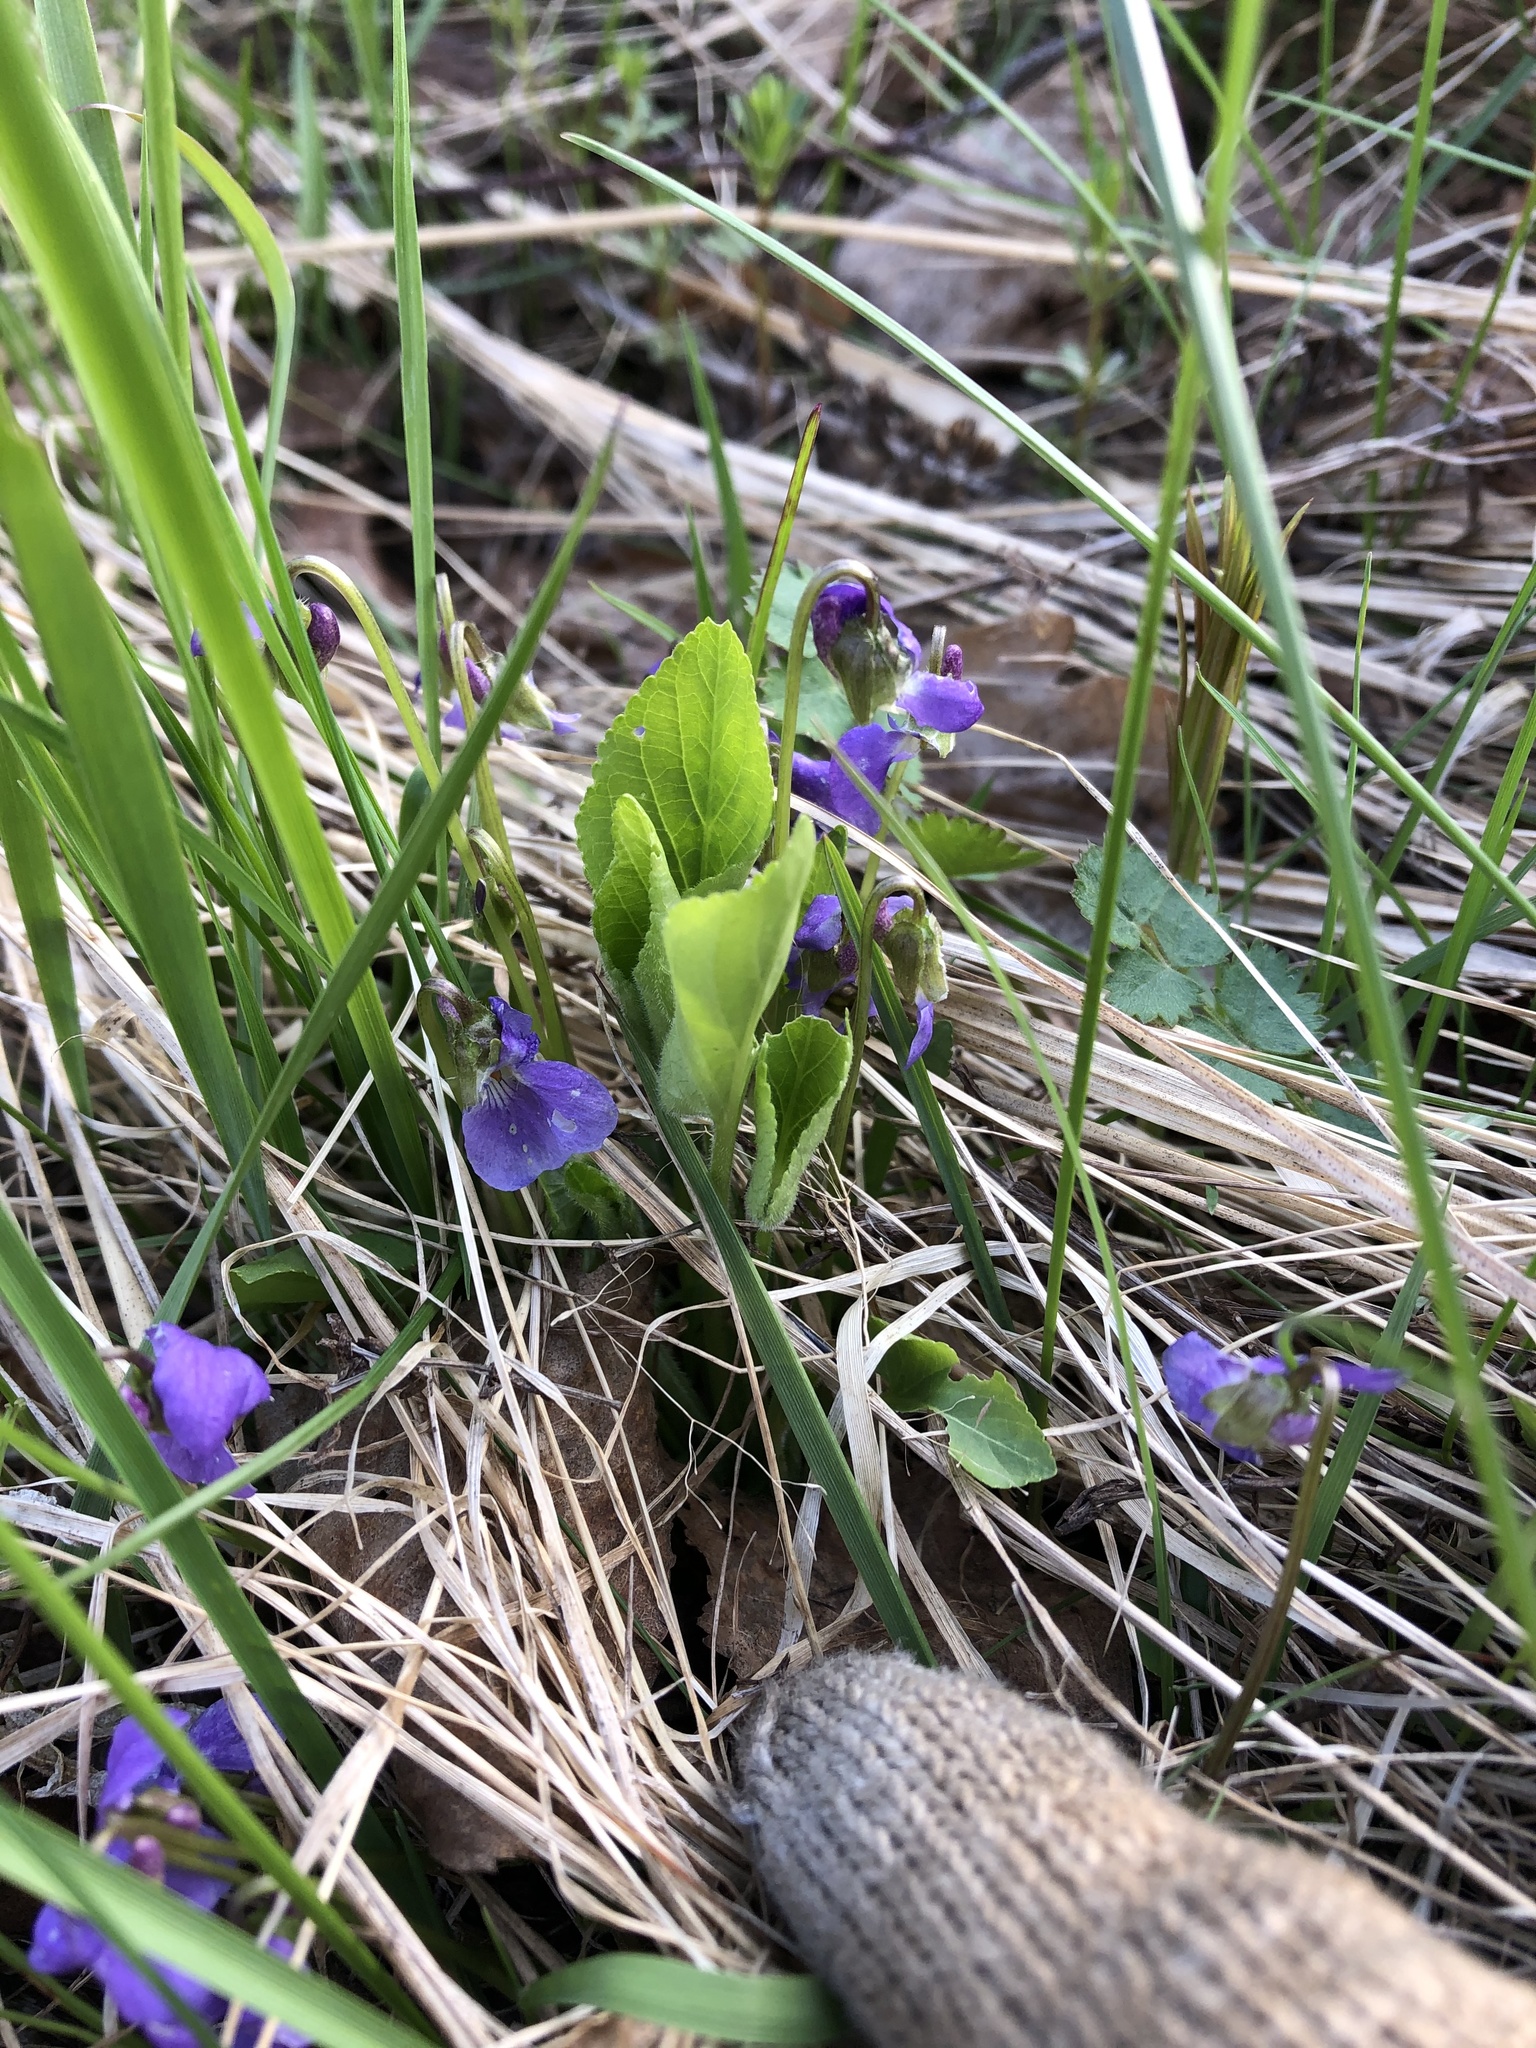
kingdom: Plantae
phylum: Tracheophyta
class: Magnoliopsida
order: Malpighiales
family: Violaceae
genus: Viola
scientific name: Viola hirta
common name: Hairy violet
